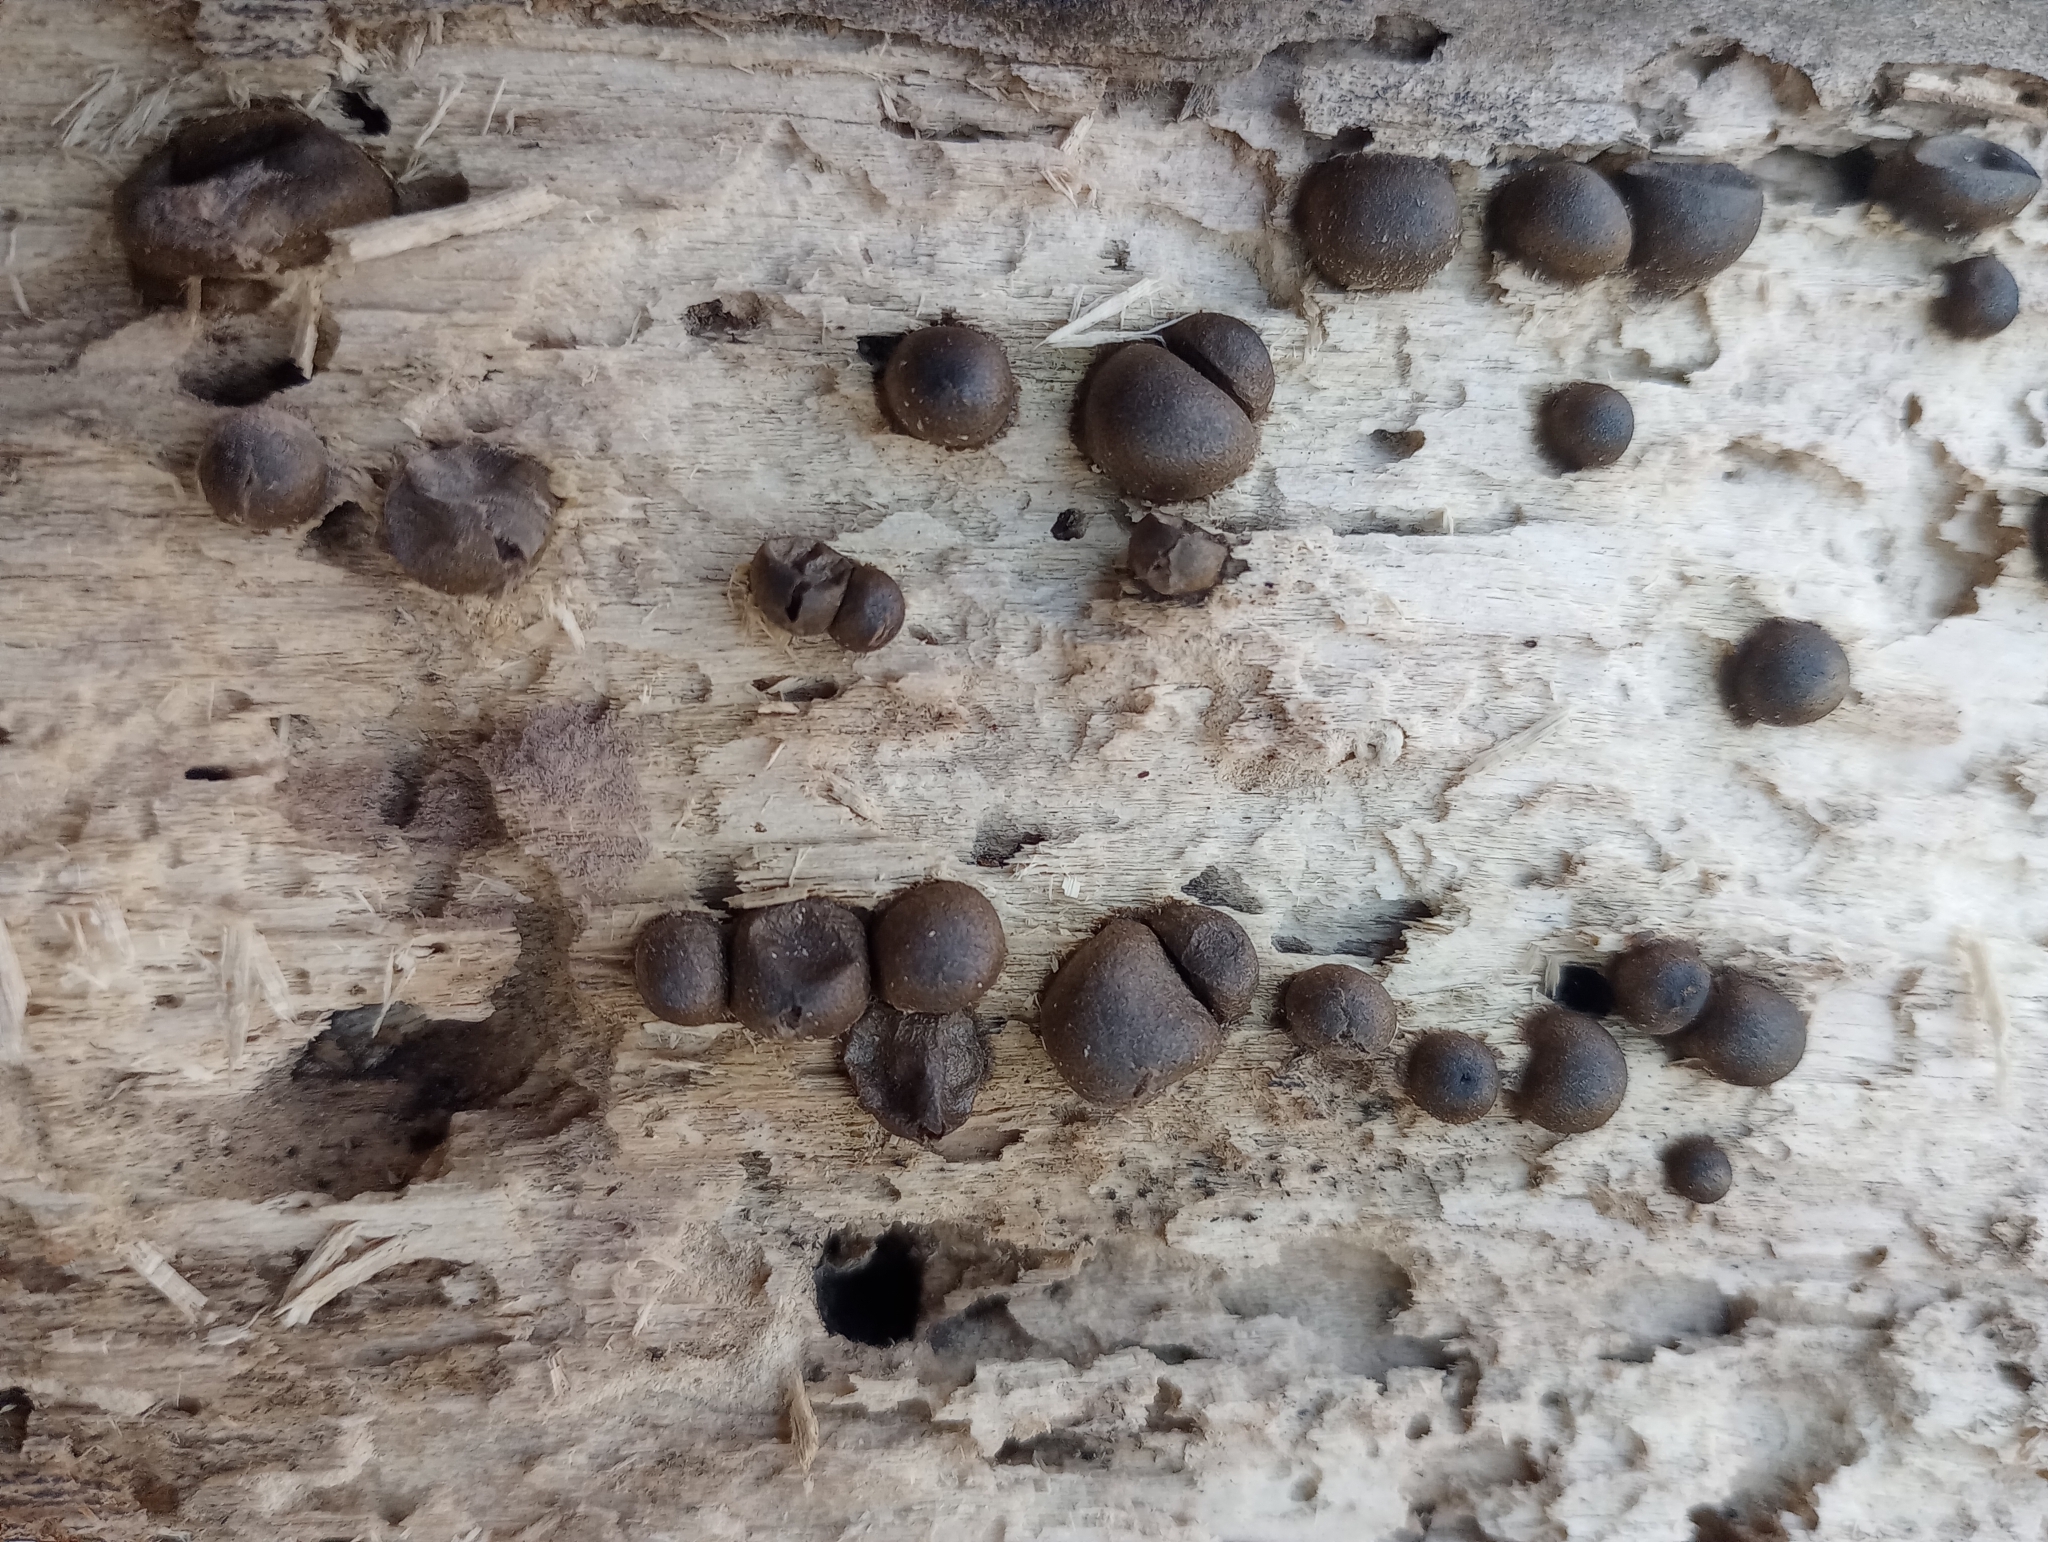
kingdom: Protozoa
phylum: Mycetozoa
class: Myxomycetes
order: Cribrariales
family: Tubiferaceae
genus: Lycogala
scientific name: Lycogala epidendrum
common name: Wolf's milk
